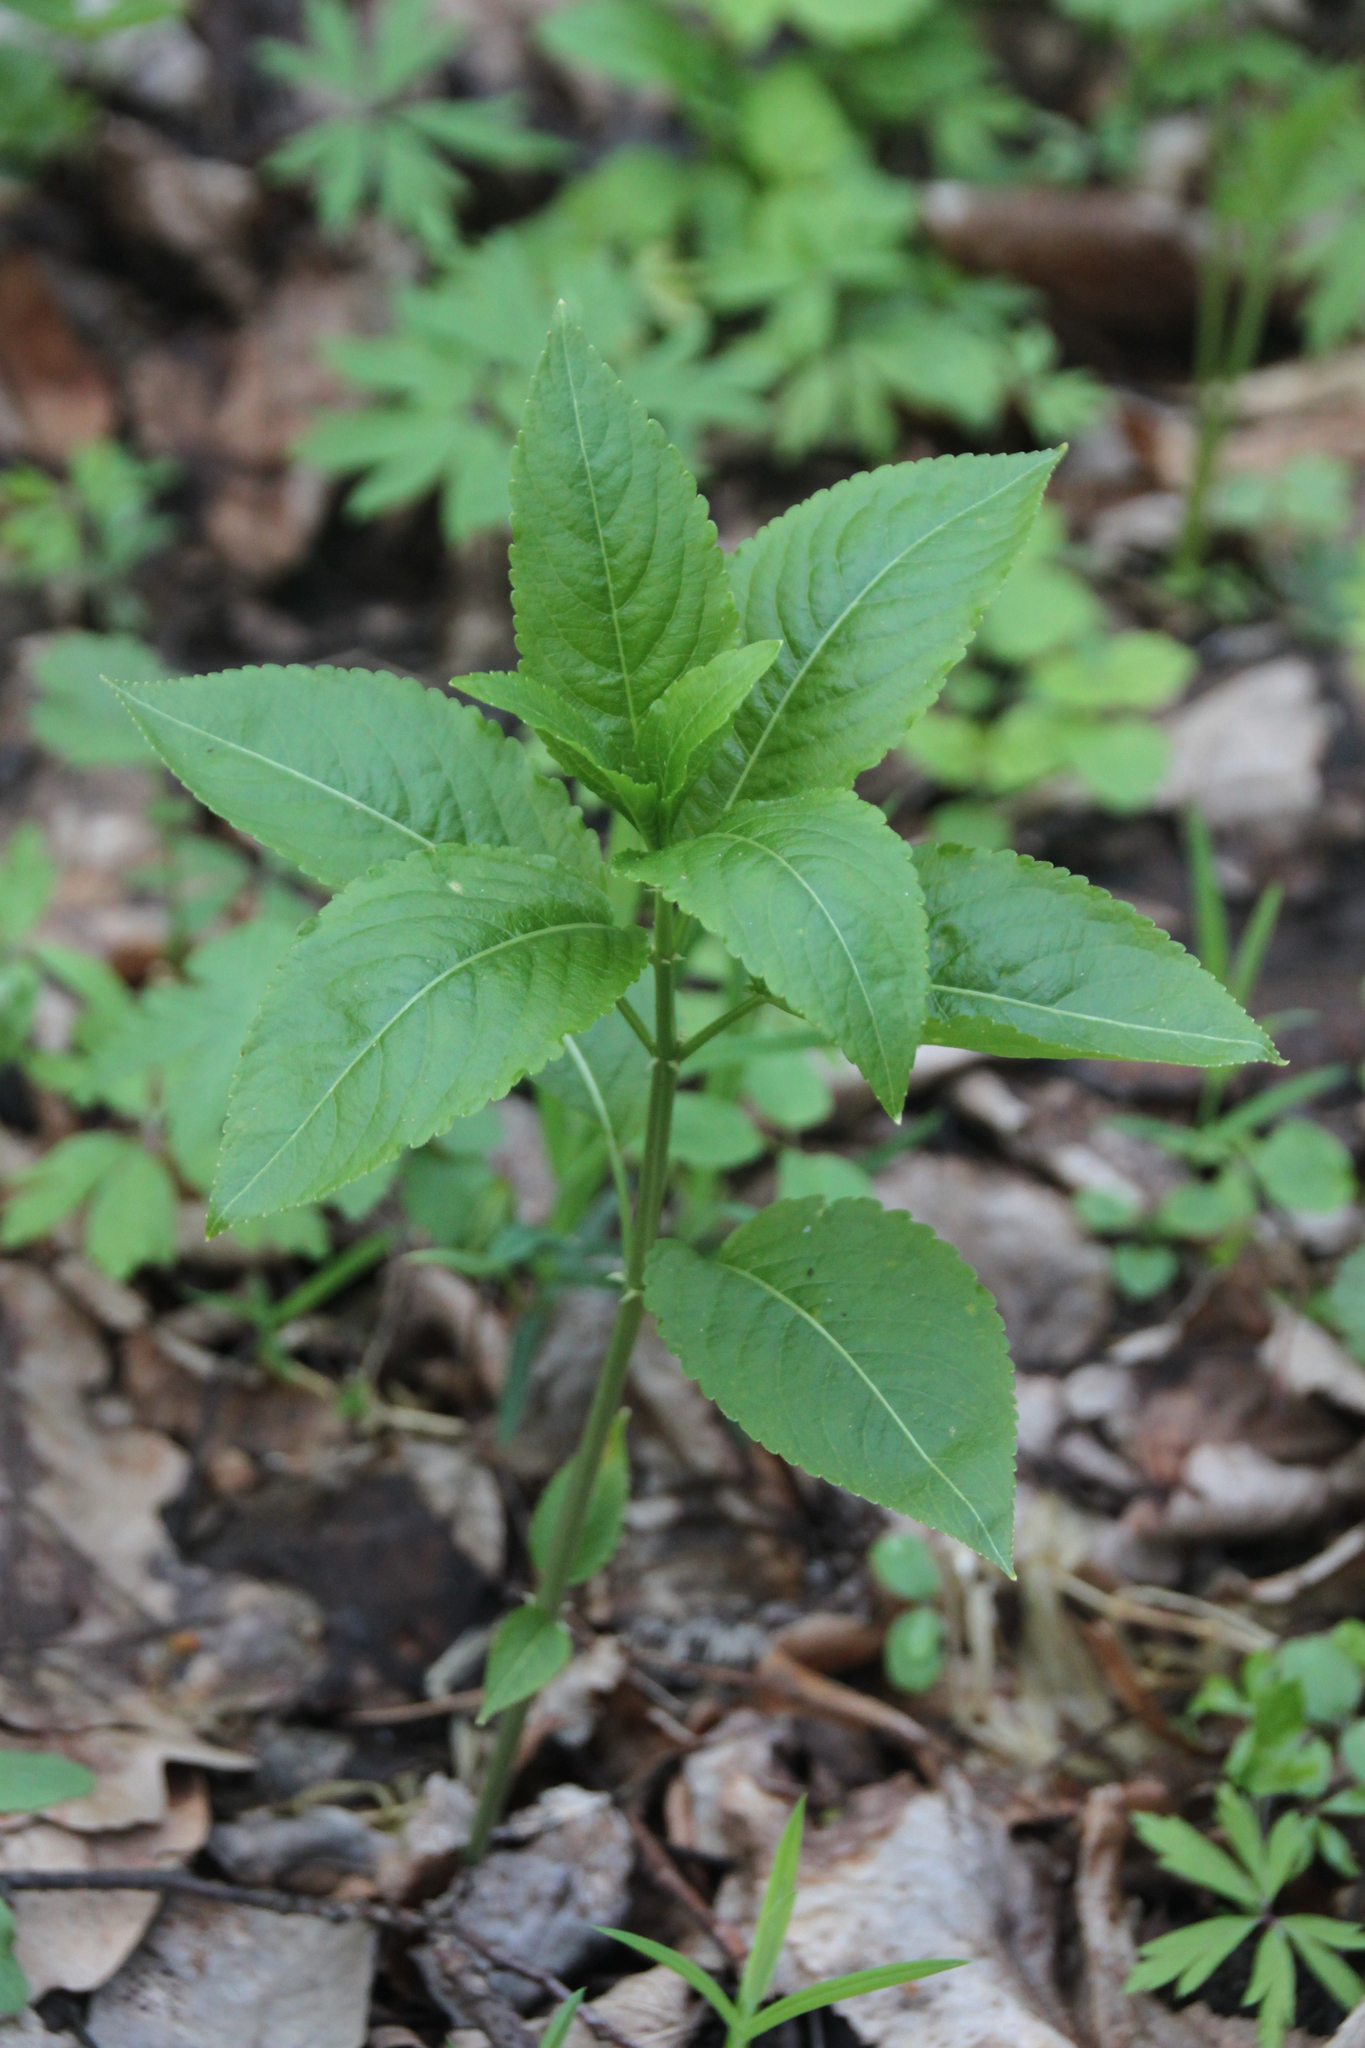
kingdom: Plantae
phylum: Tracheophyta
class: Magnoliopsida
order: Malpighiales
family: Euphorbiaceae
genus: Mercurialis
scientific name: Mercurialis perennis
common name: Dog mercury
